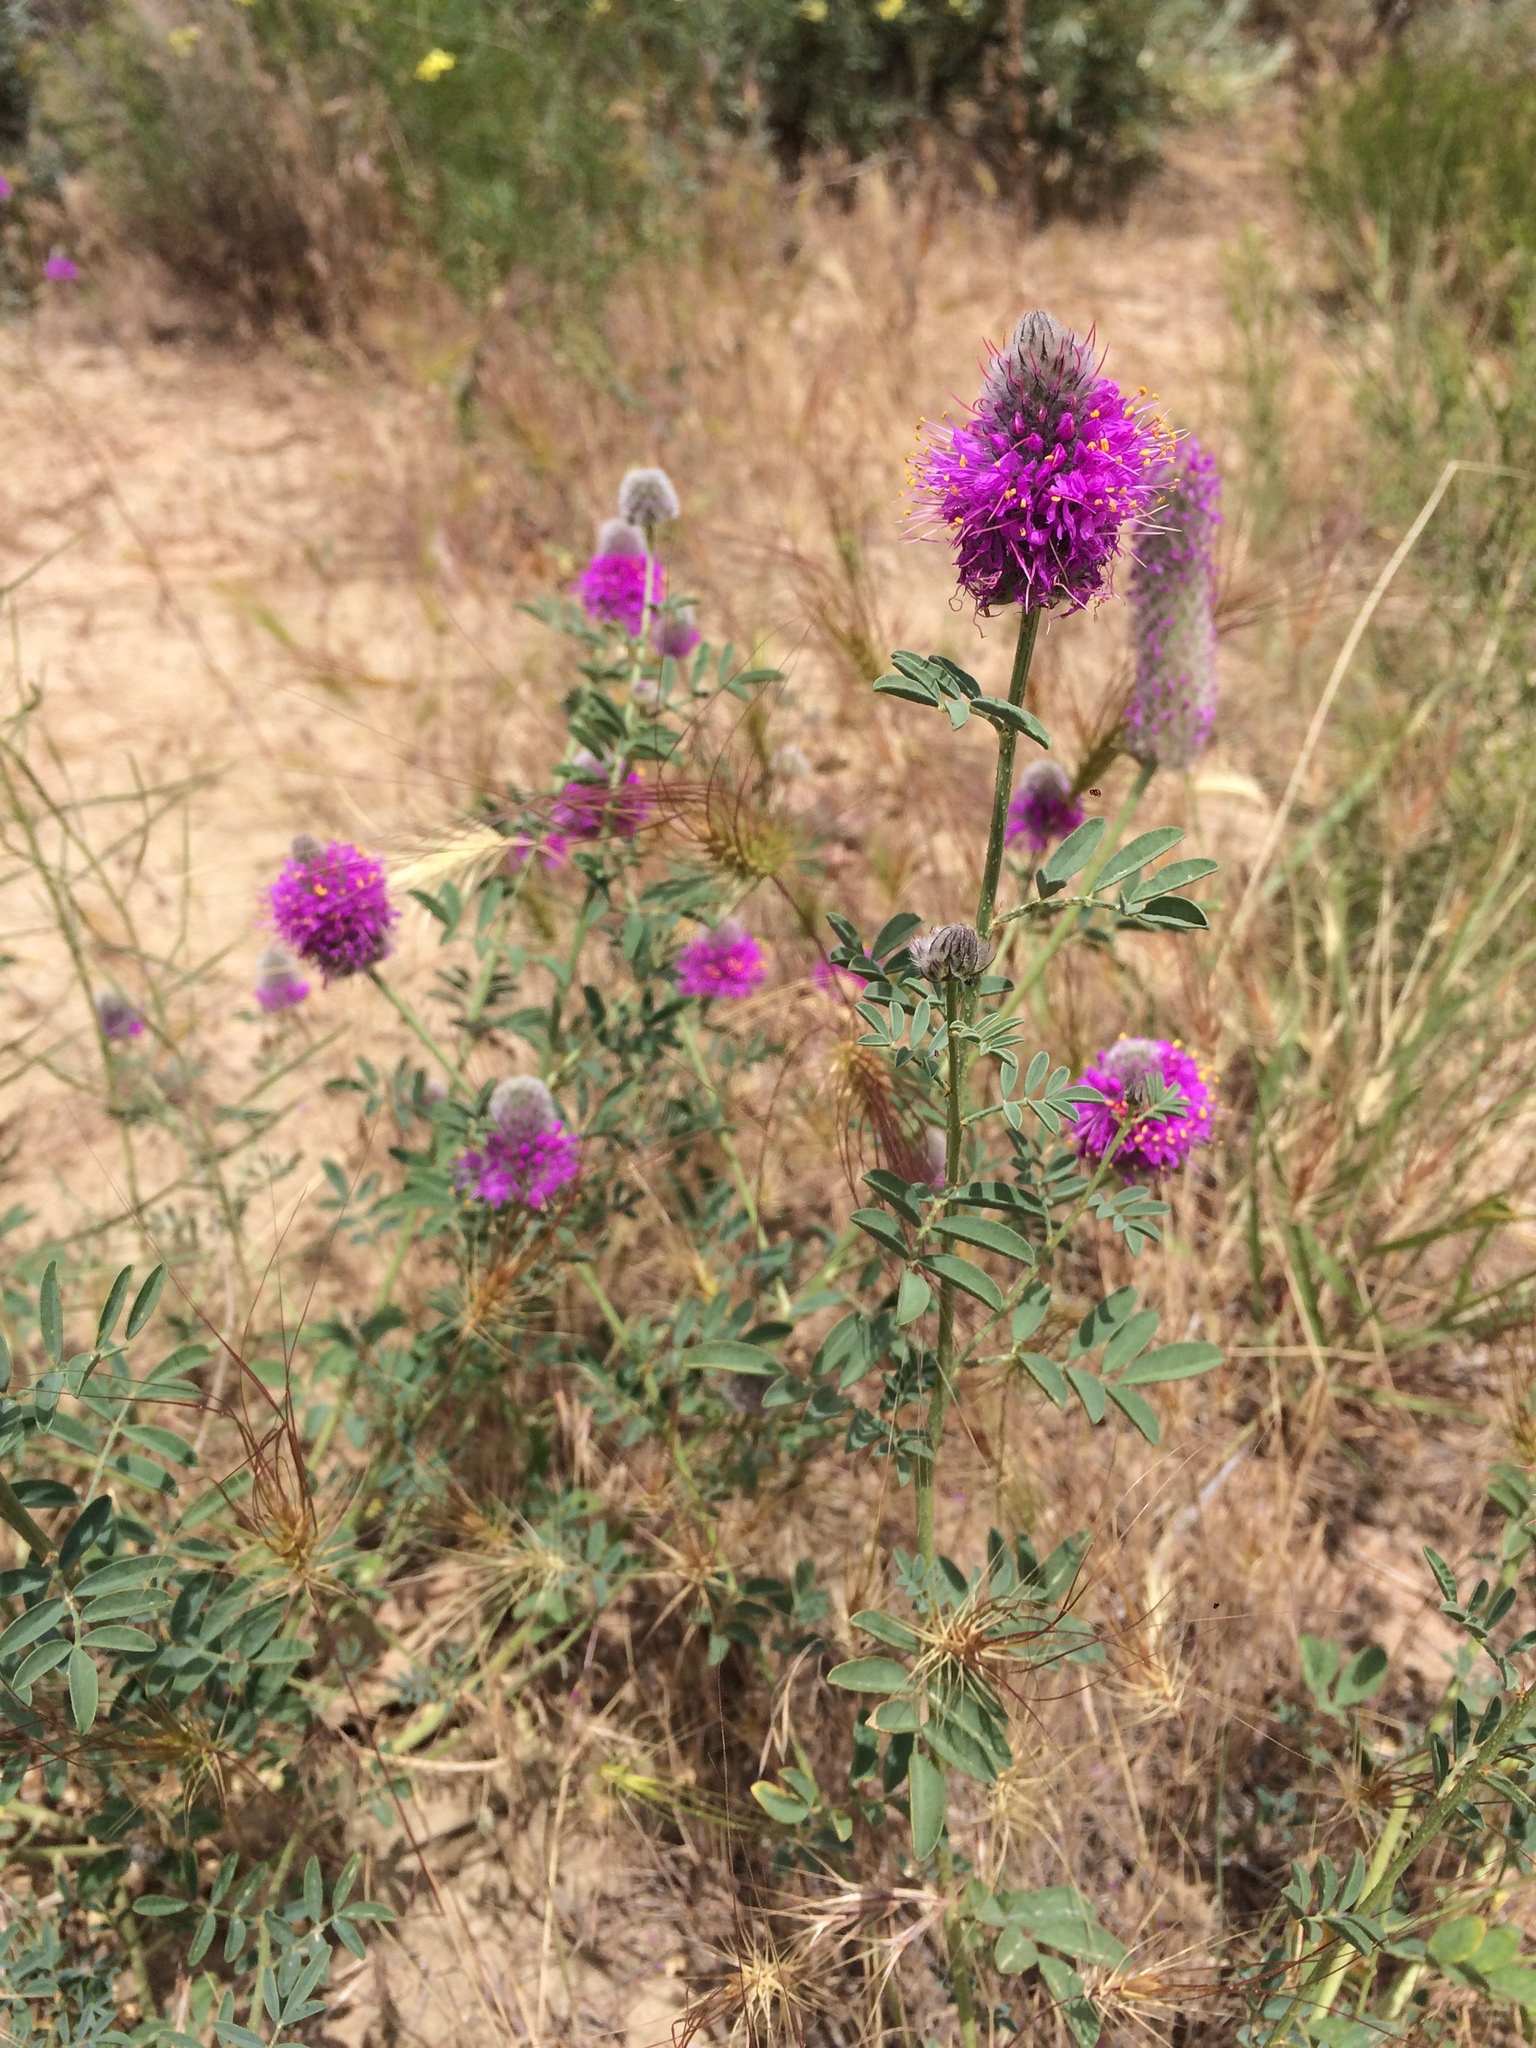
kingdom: Plantae
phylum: Tracheophyta
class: Magnoliopsida
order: Fabales
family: Fabaceae
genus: Dalea
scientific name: Dalea ornata
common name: Blue mountain prairie-clover
